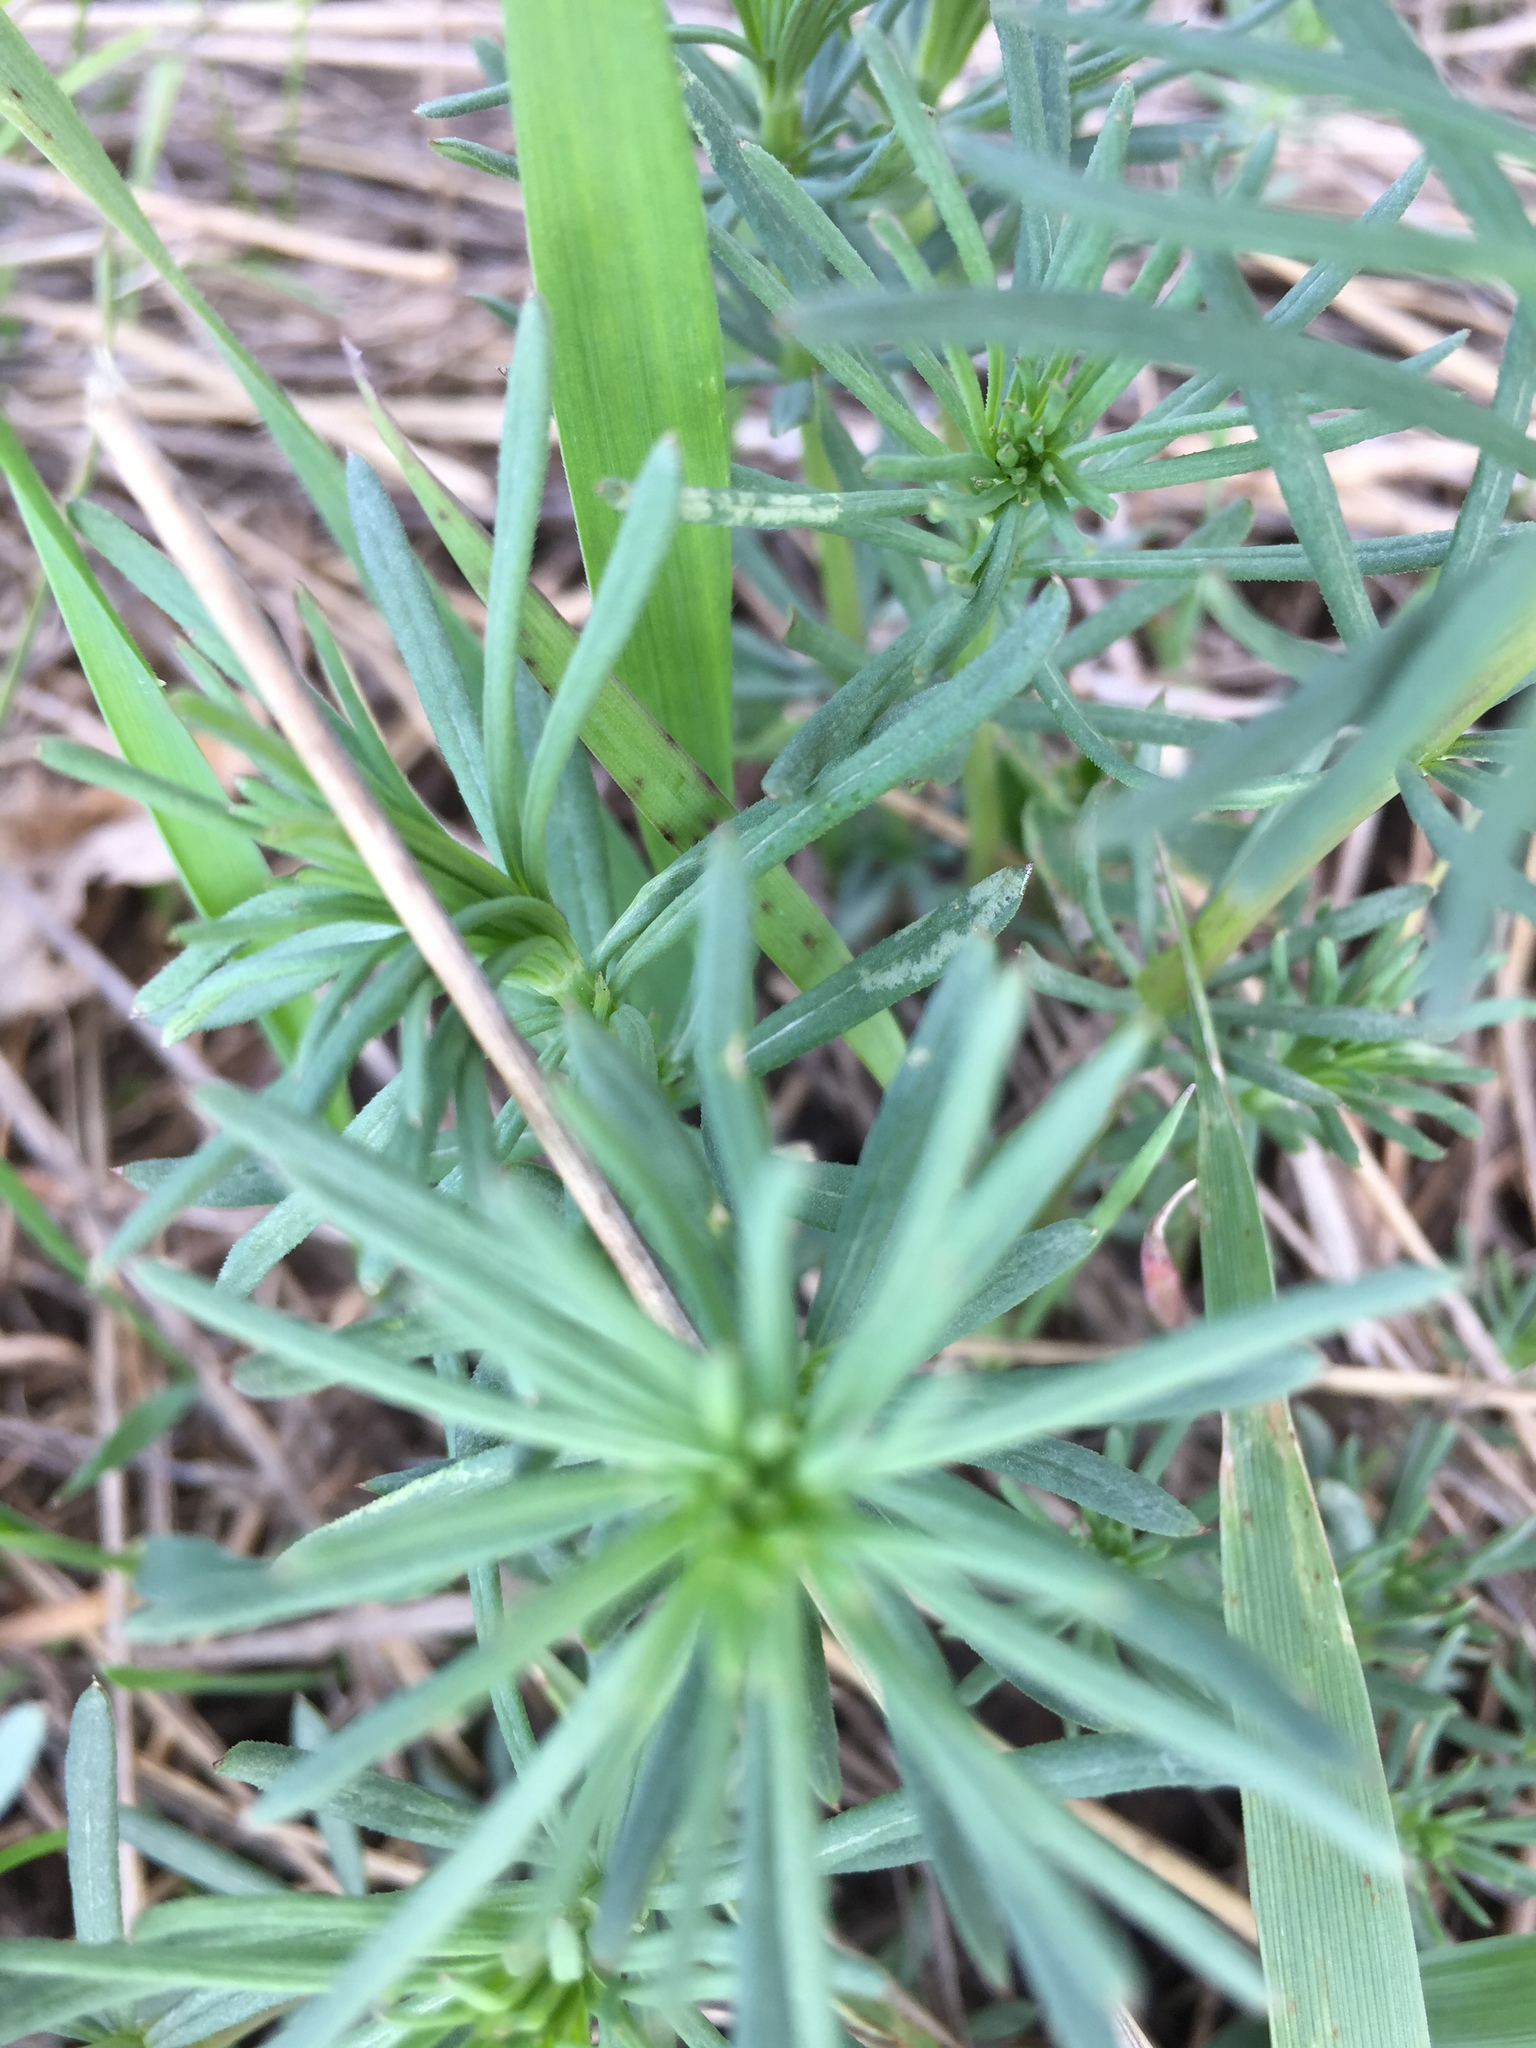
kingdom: Plantae
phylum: Tracheophyta
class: Magnoliopsida
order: Gentianales
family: Rubiaceae
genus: Galium
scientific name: Galium verum
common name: Lady's bedstraw
